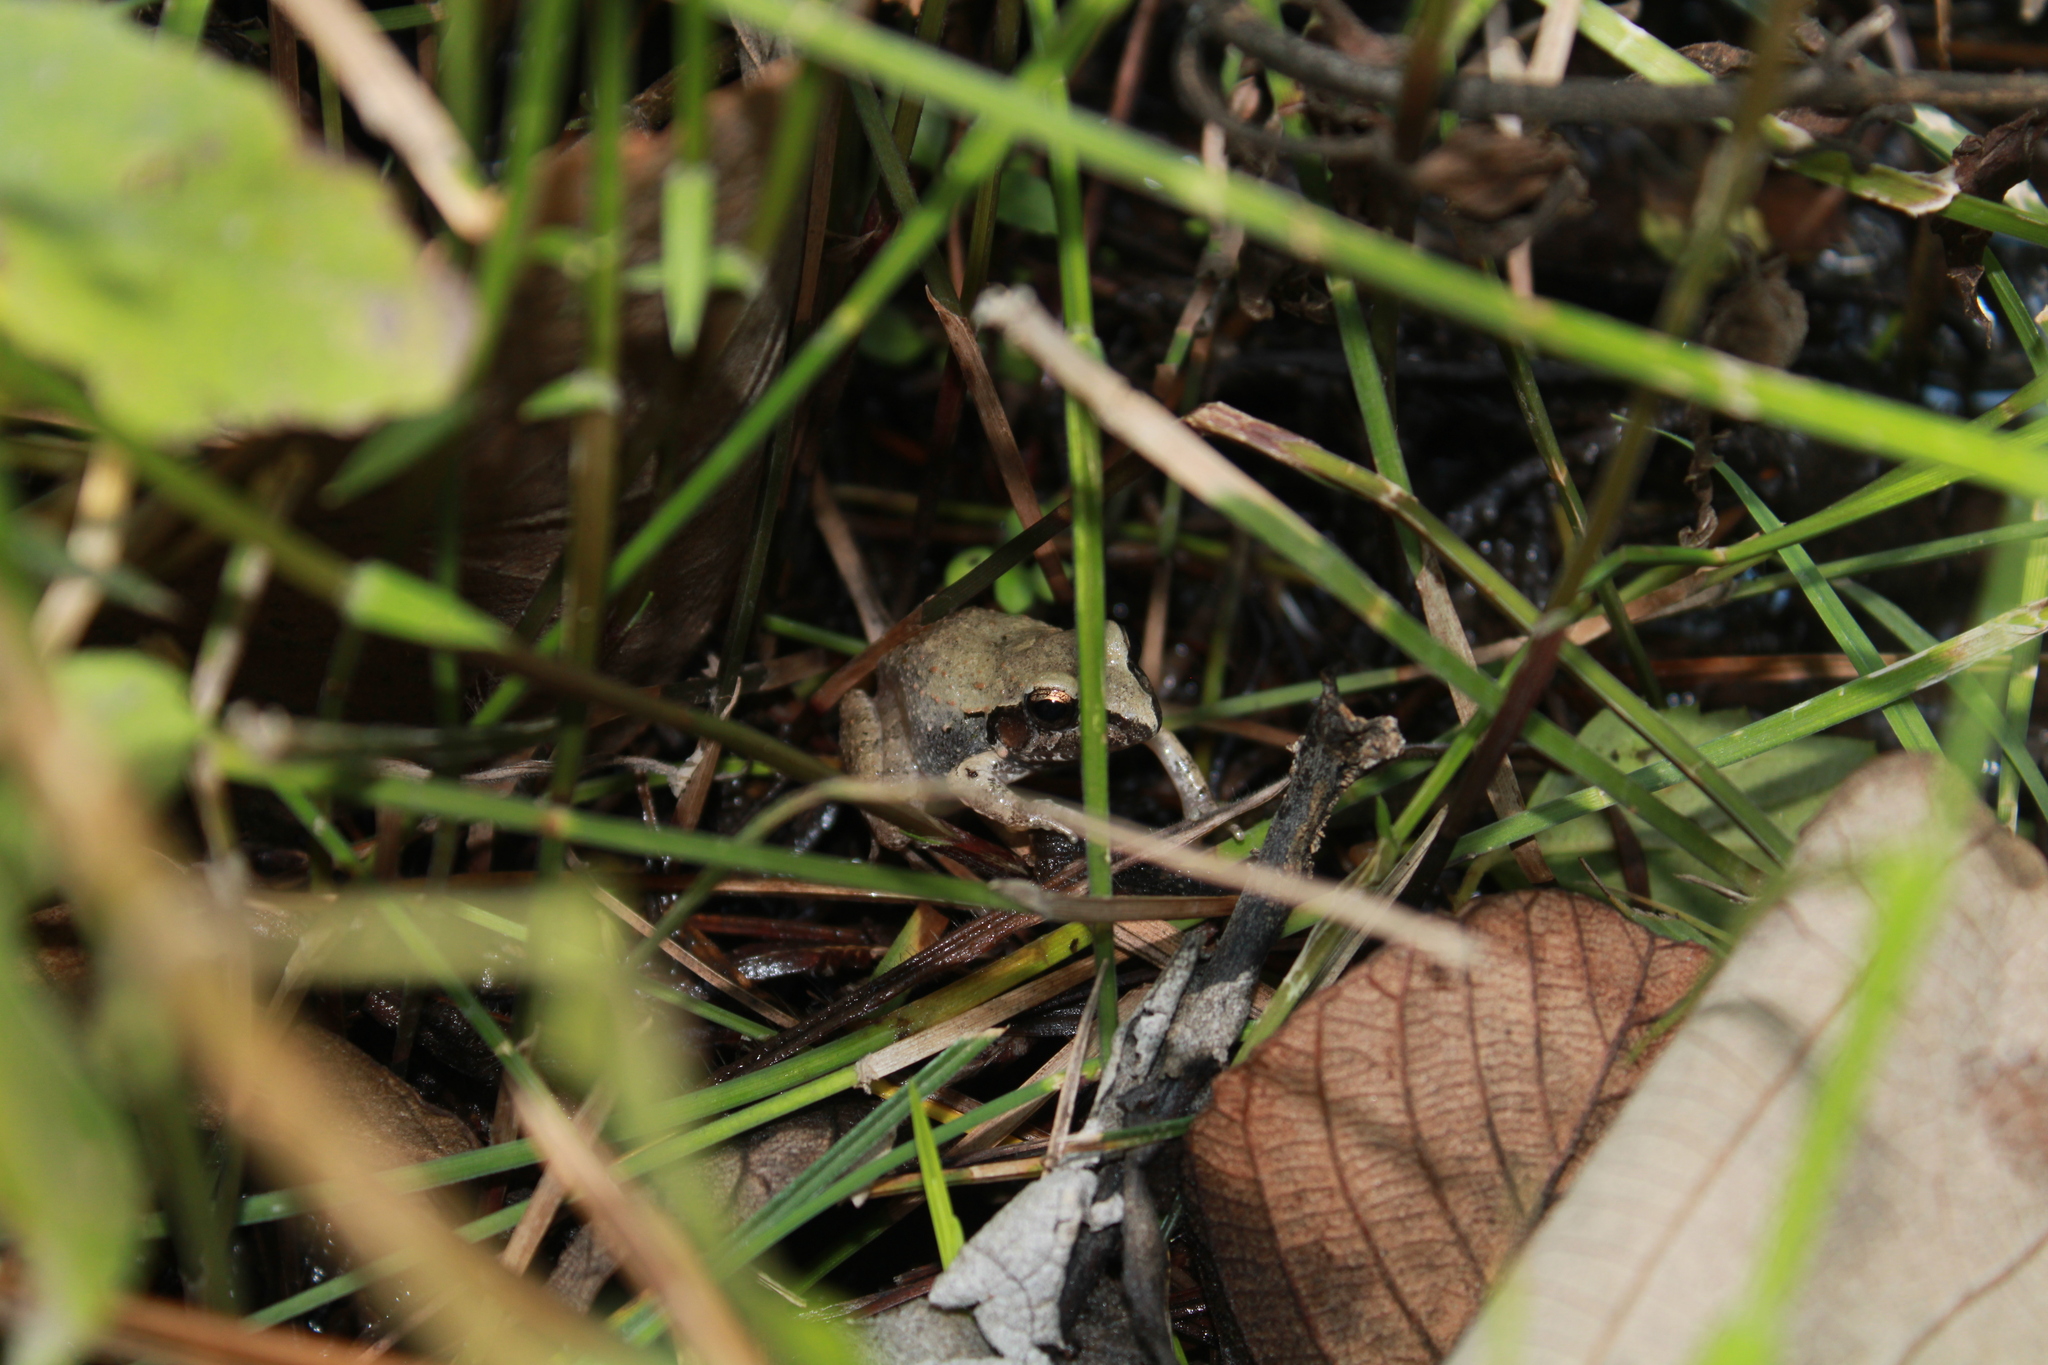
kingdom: Animalia
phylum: Chordata
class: Amphibia
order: Anura
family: Craugastoridae
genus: Craugastor
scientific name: Craugastor occidentalis
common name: Taylor's barking frog
